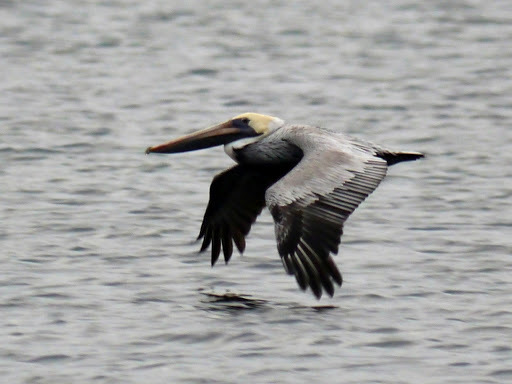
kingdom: Animalia
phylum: Chordata
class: Aves
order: Pelecaniformes
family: Pelecanidae
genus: Pelecanus
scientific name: Pelecanus occidentalis
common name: Brown pelican
